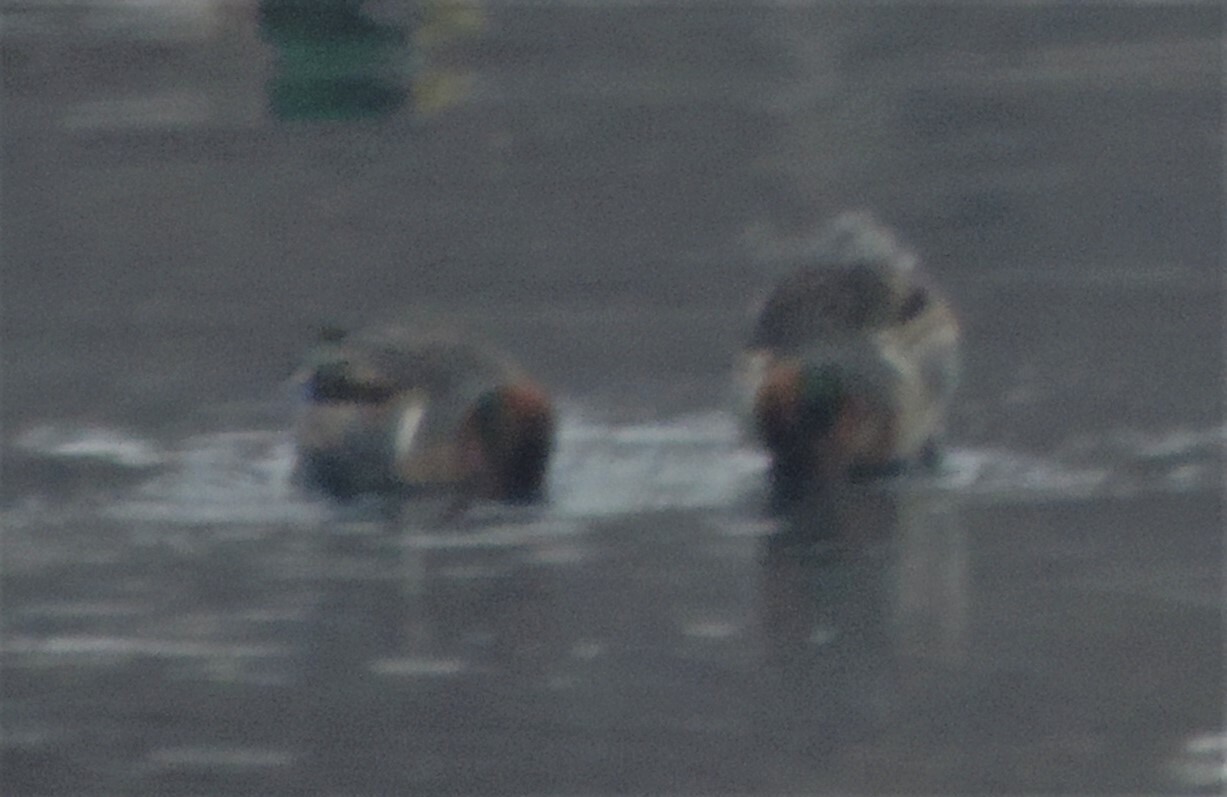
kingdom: Animalia
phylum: Chordata
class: Aves
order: Anseriformes
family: Anatidae
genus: Anas
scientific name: Anas crecca
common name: Eurasian teal
